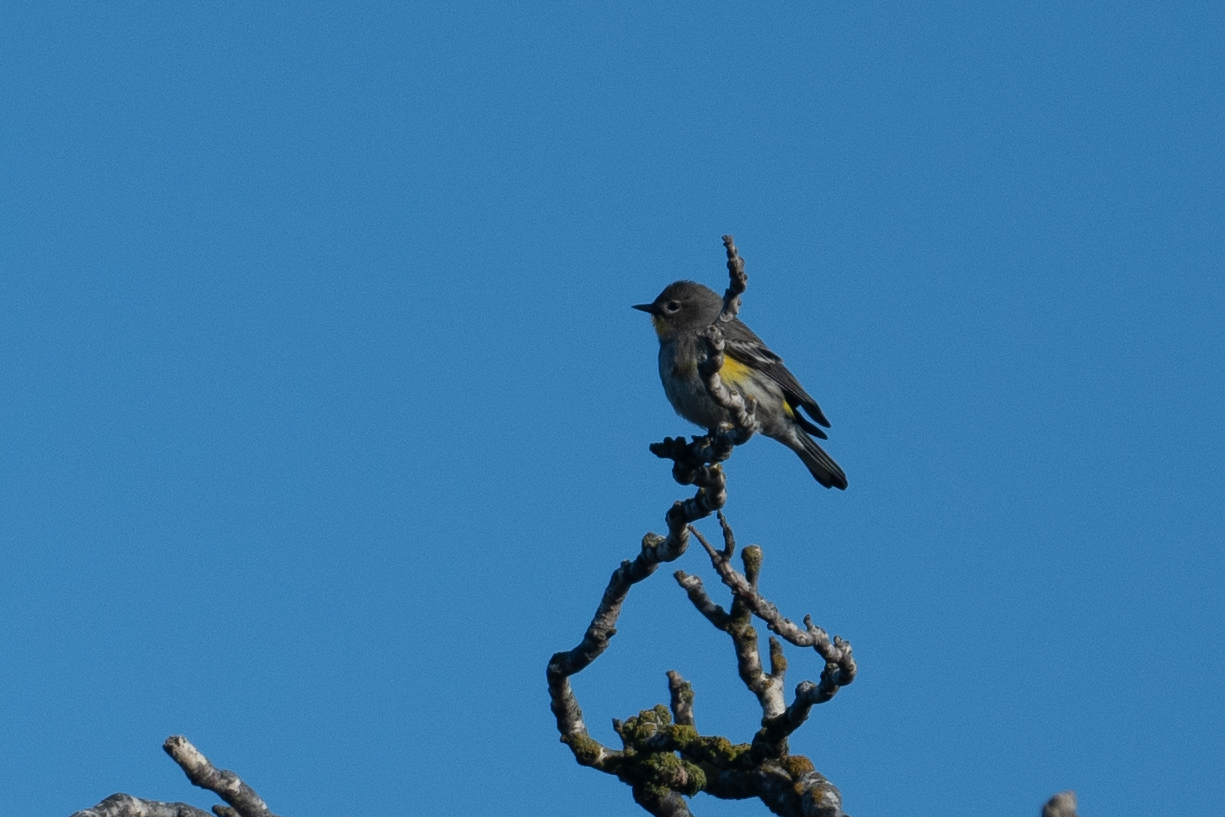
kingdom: Animalia
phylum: Chordata
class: Aves
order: Passeriformes
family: Parulidae
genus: Setophaga
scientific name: Setophaga coronata
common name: Myrtle warbler
